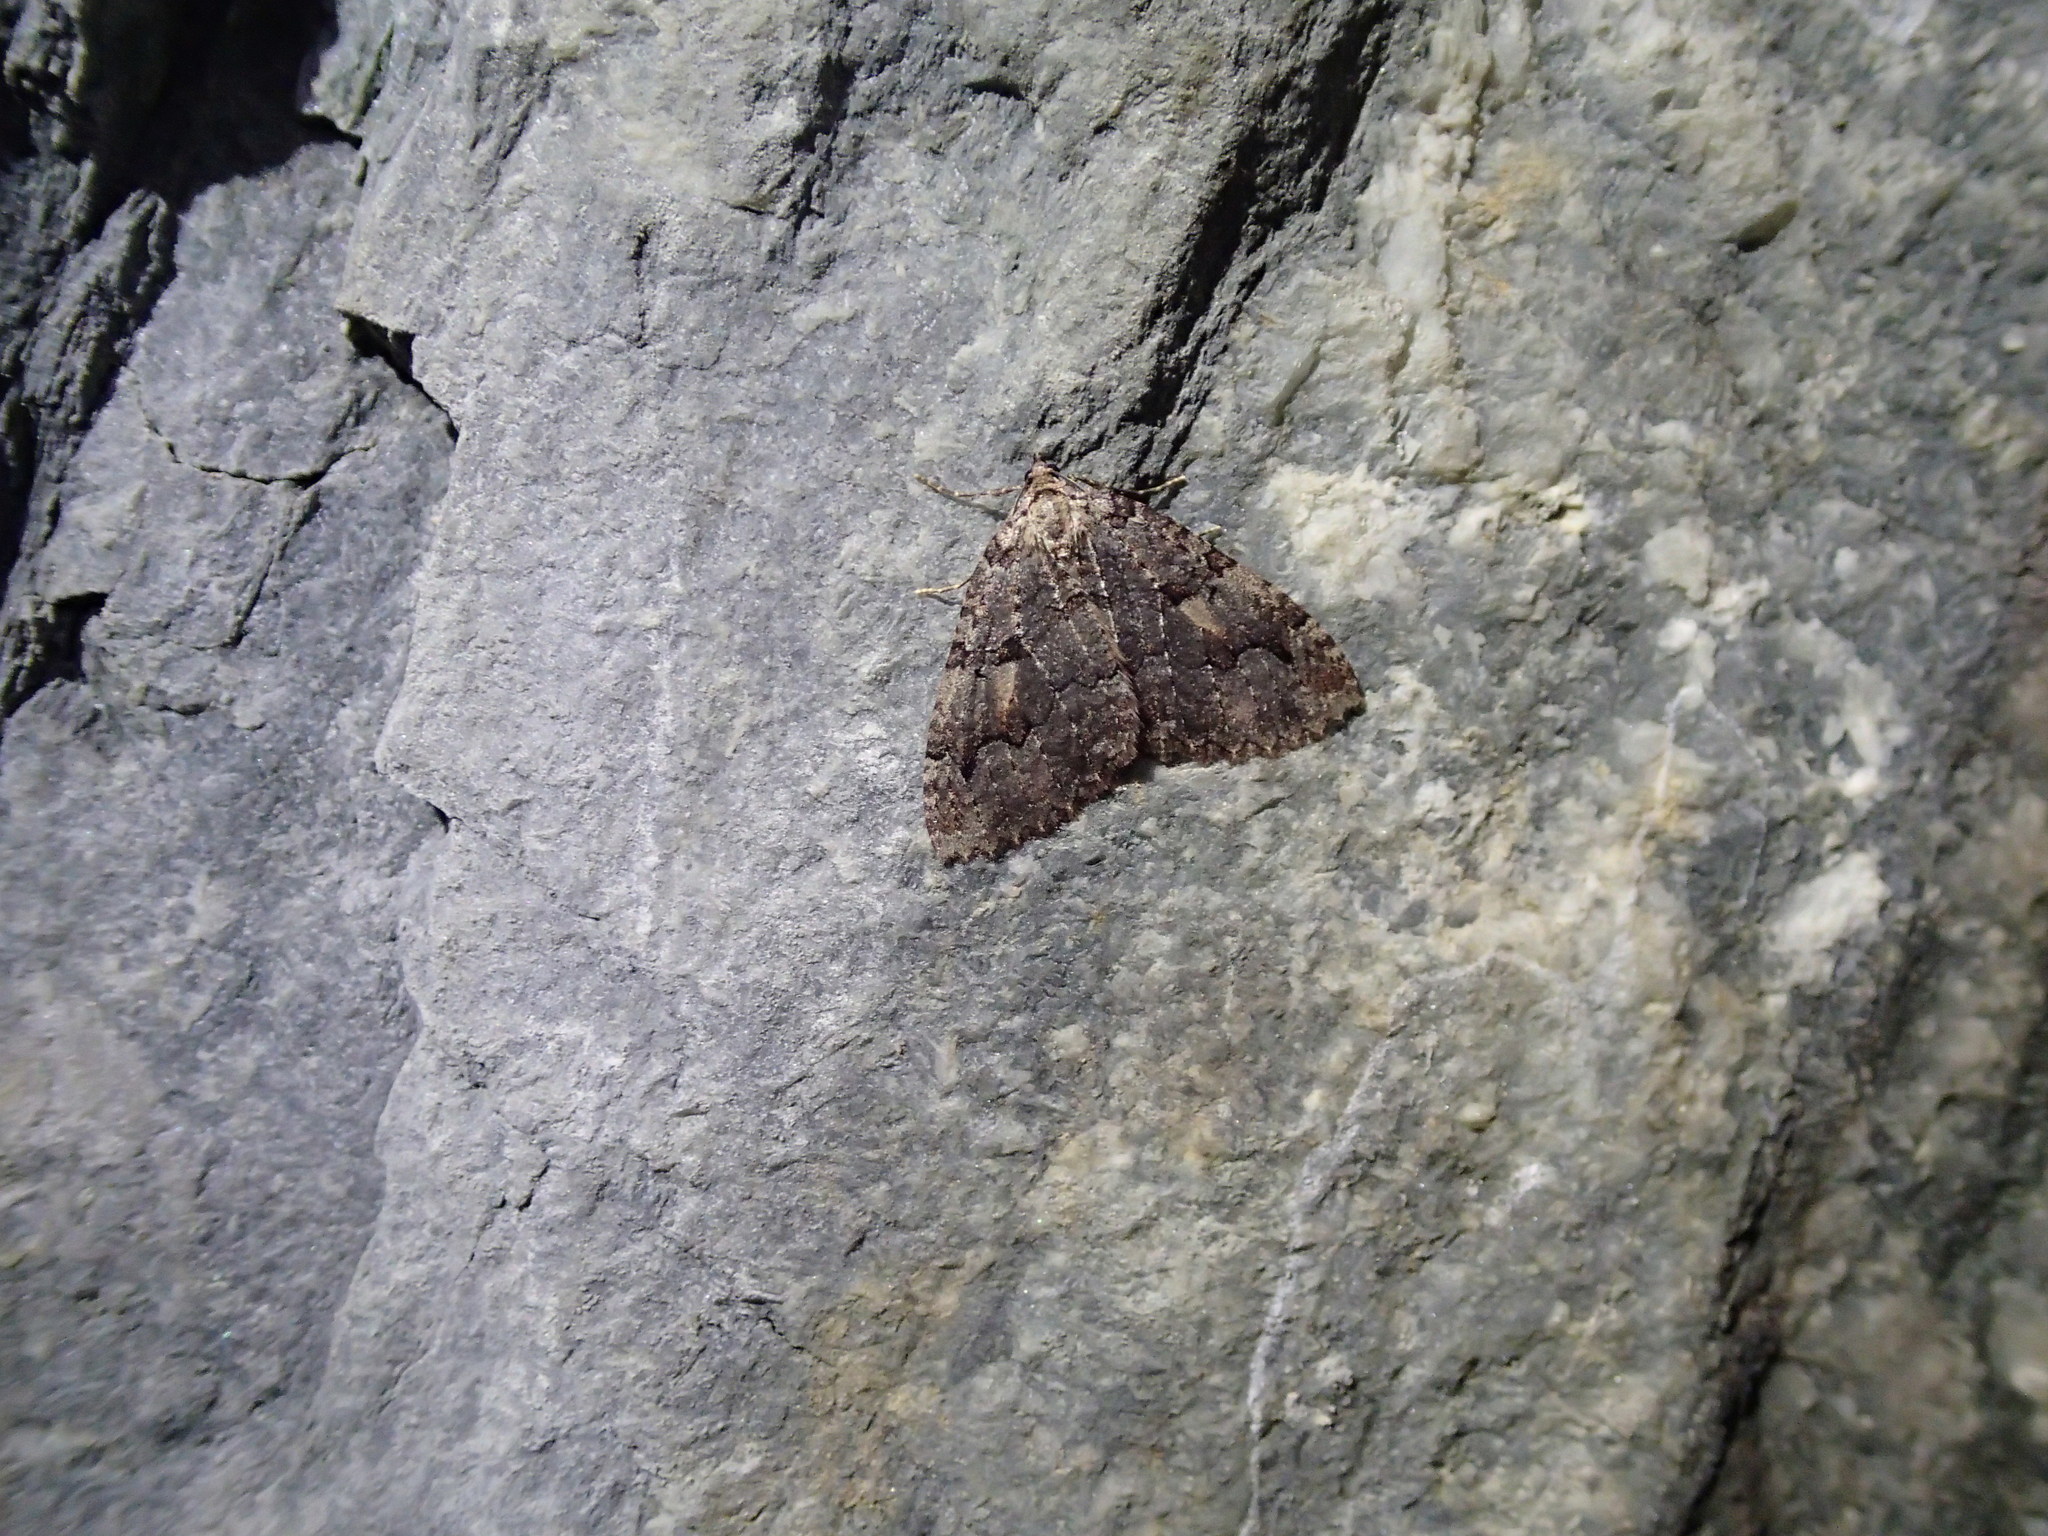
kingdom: Animalia
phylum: Arthropoda
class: Insecta
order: Lepidoptera
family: Geometridae
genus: Triphosa
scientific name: Triphosa haesitata
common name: Tissue moth
